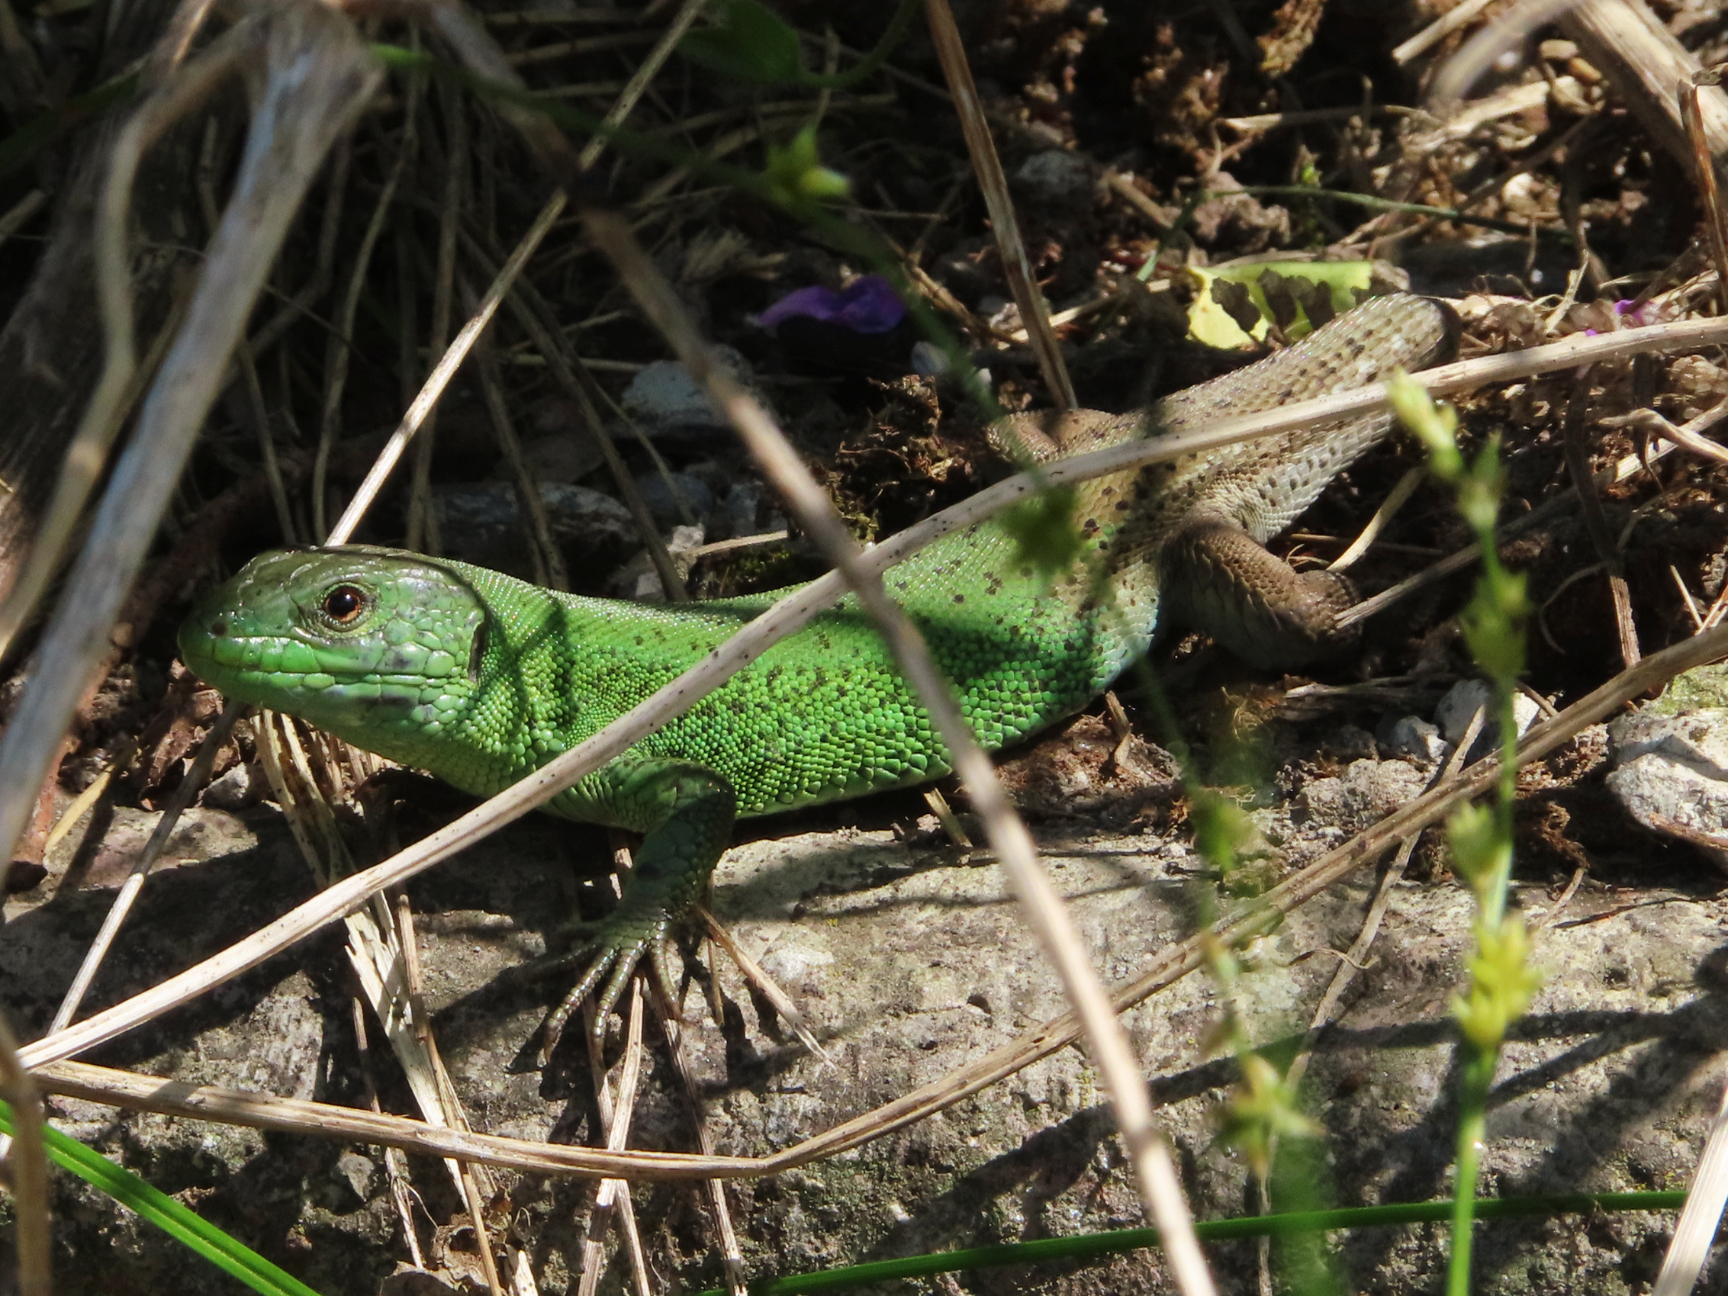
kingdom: Animalia
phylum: Chordata
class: Squamata
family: Lacertidae
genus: Lacerta
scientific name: Lacerta strigata
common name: Caspian green lizard
